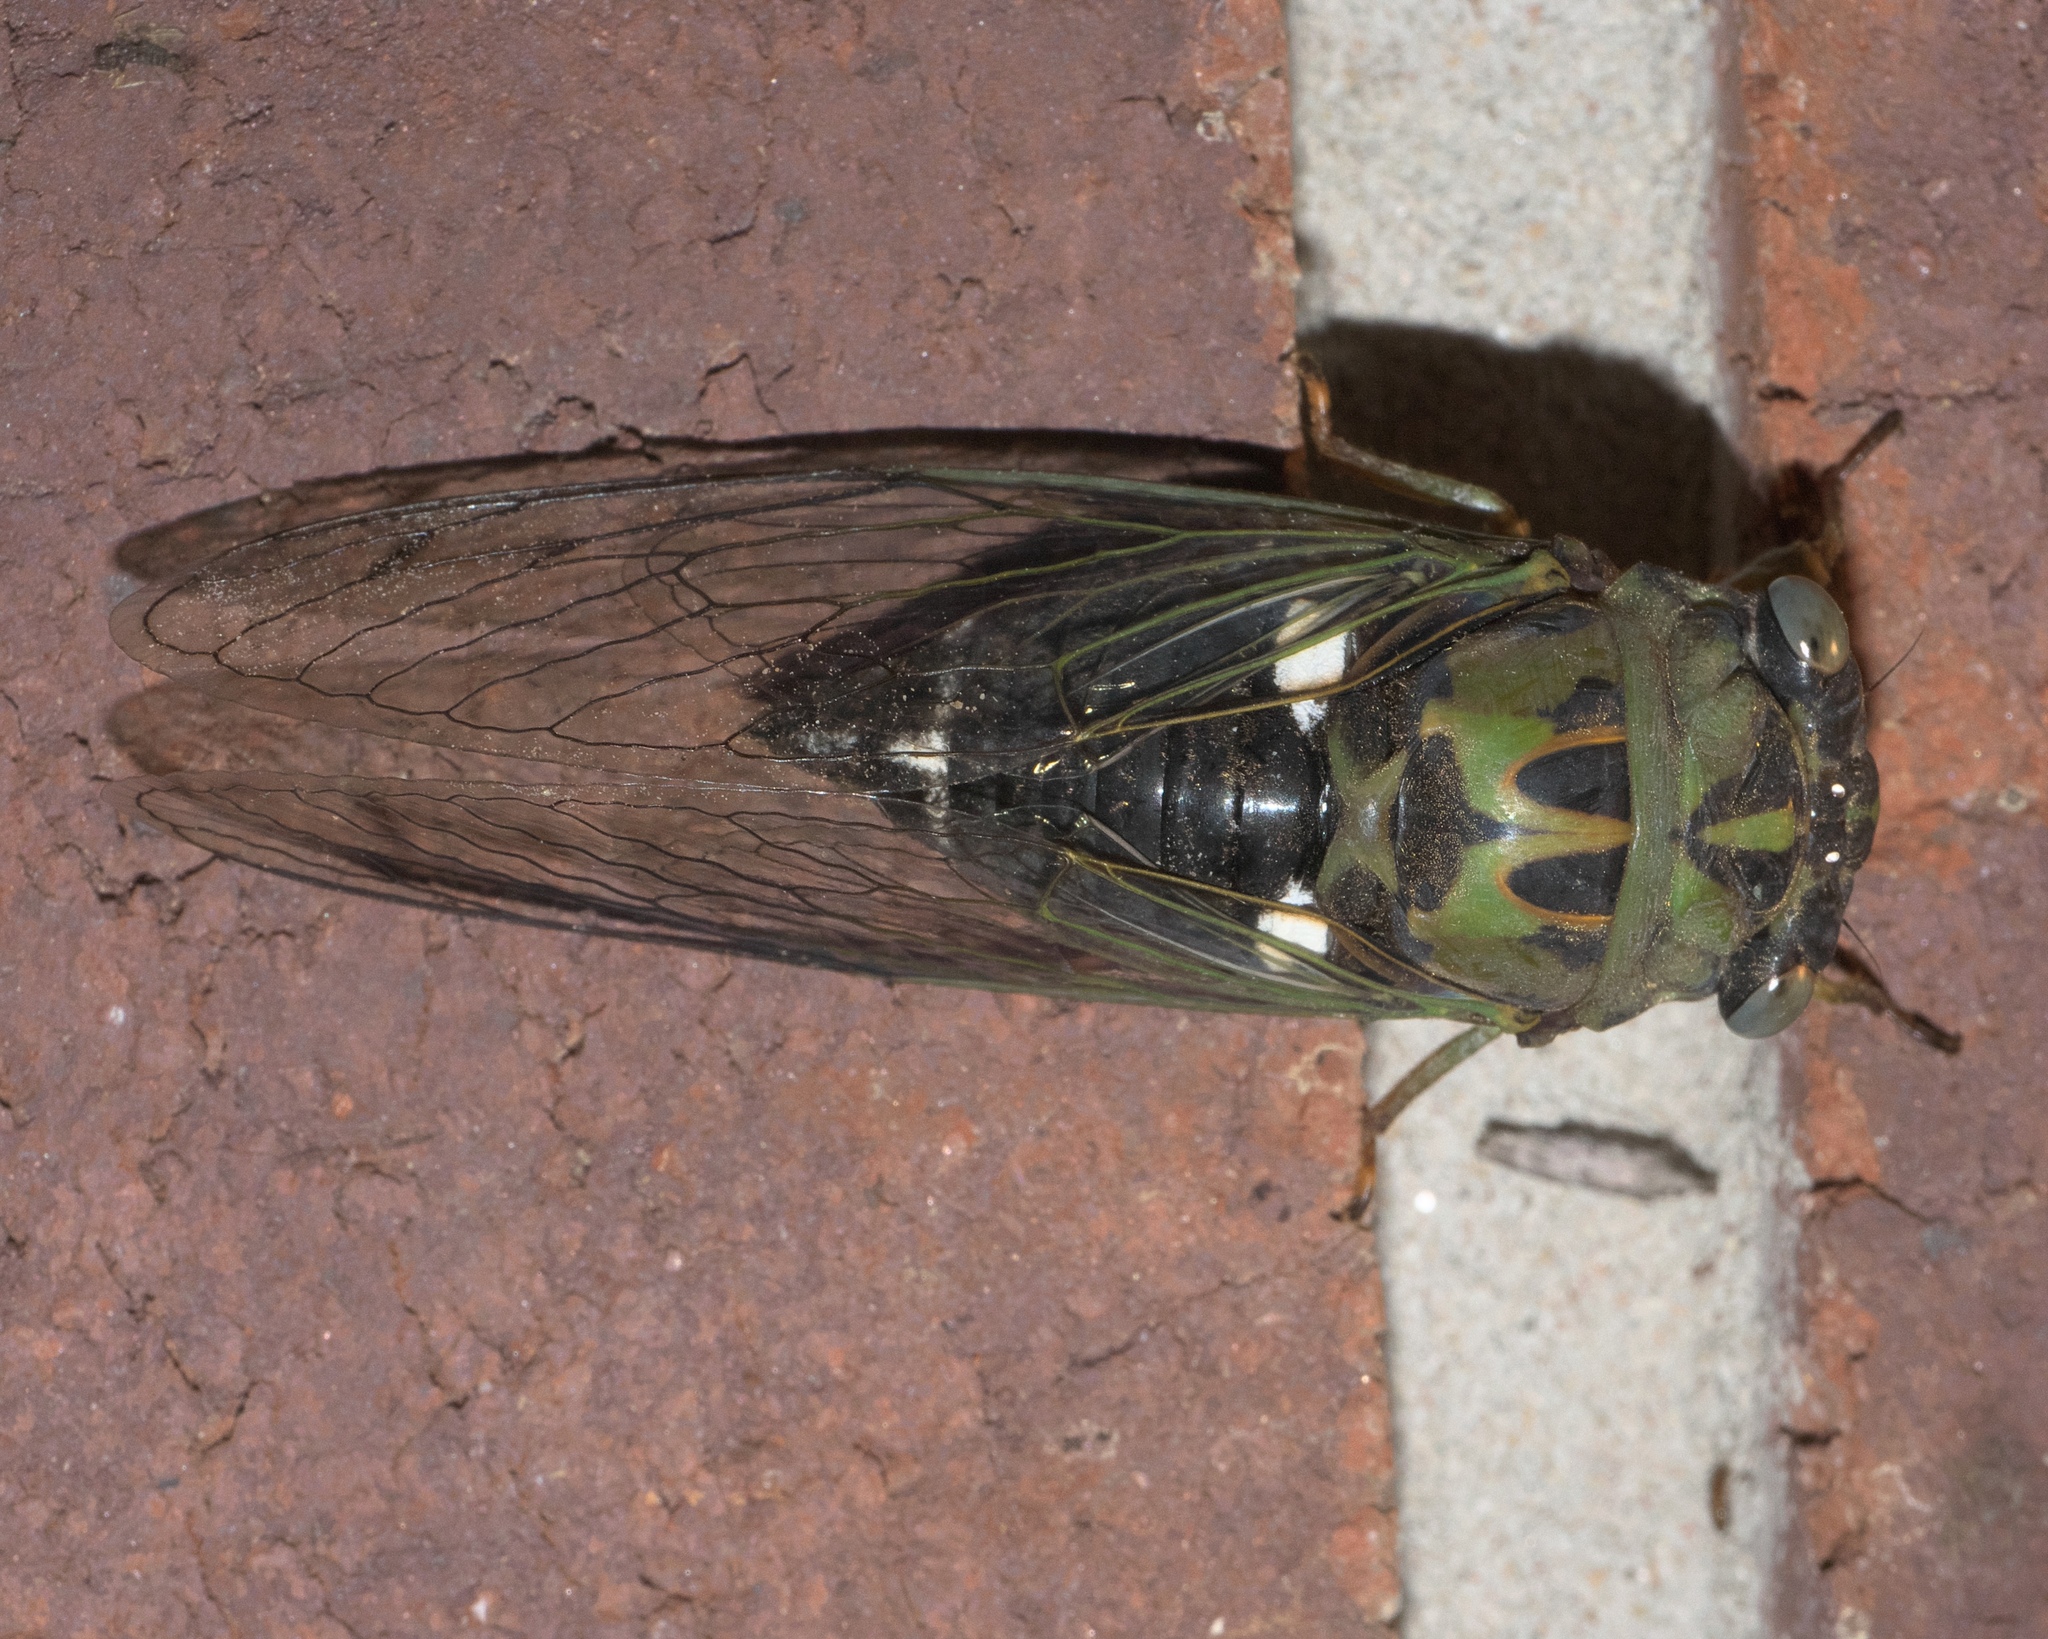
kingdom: Animalia
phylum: Arthropoda
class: Insecta
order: Hemiptera
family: Cicadidae
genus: Neotibicen
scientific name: Neotibicen pruinosus
